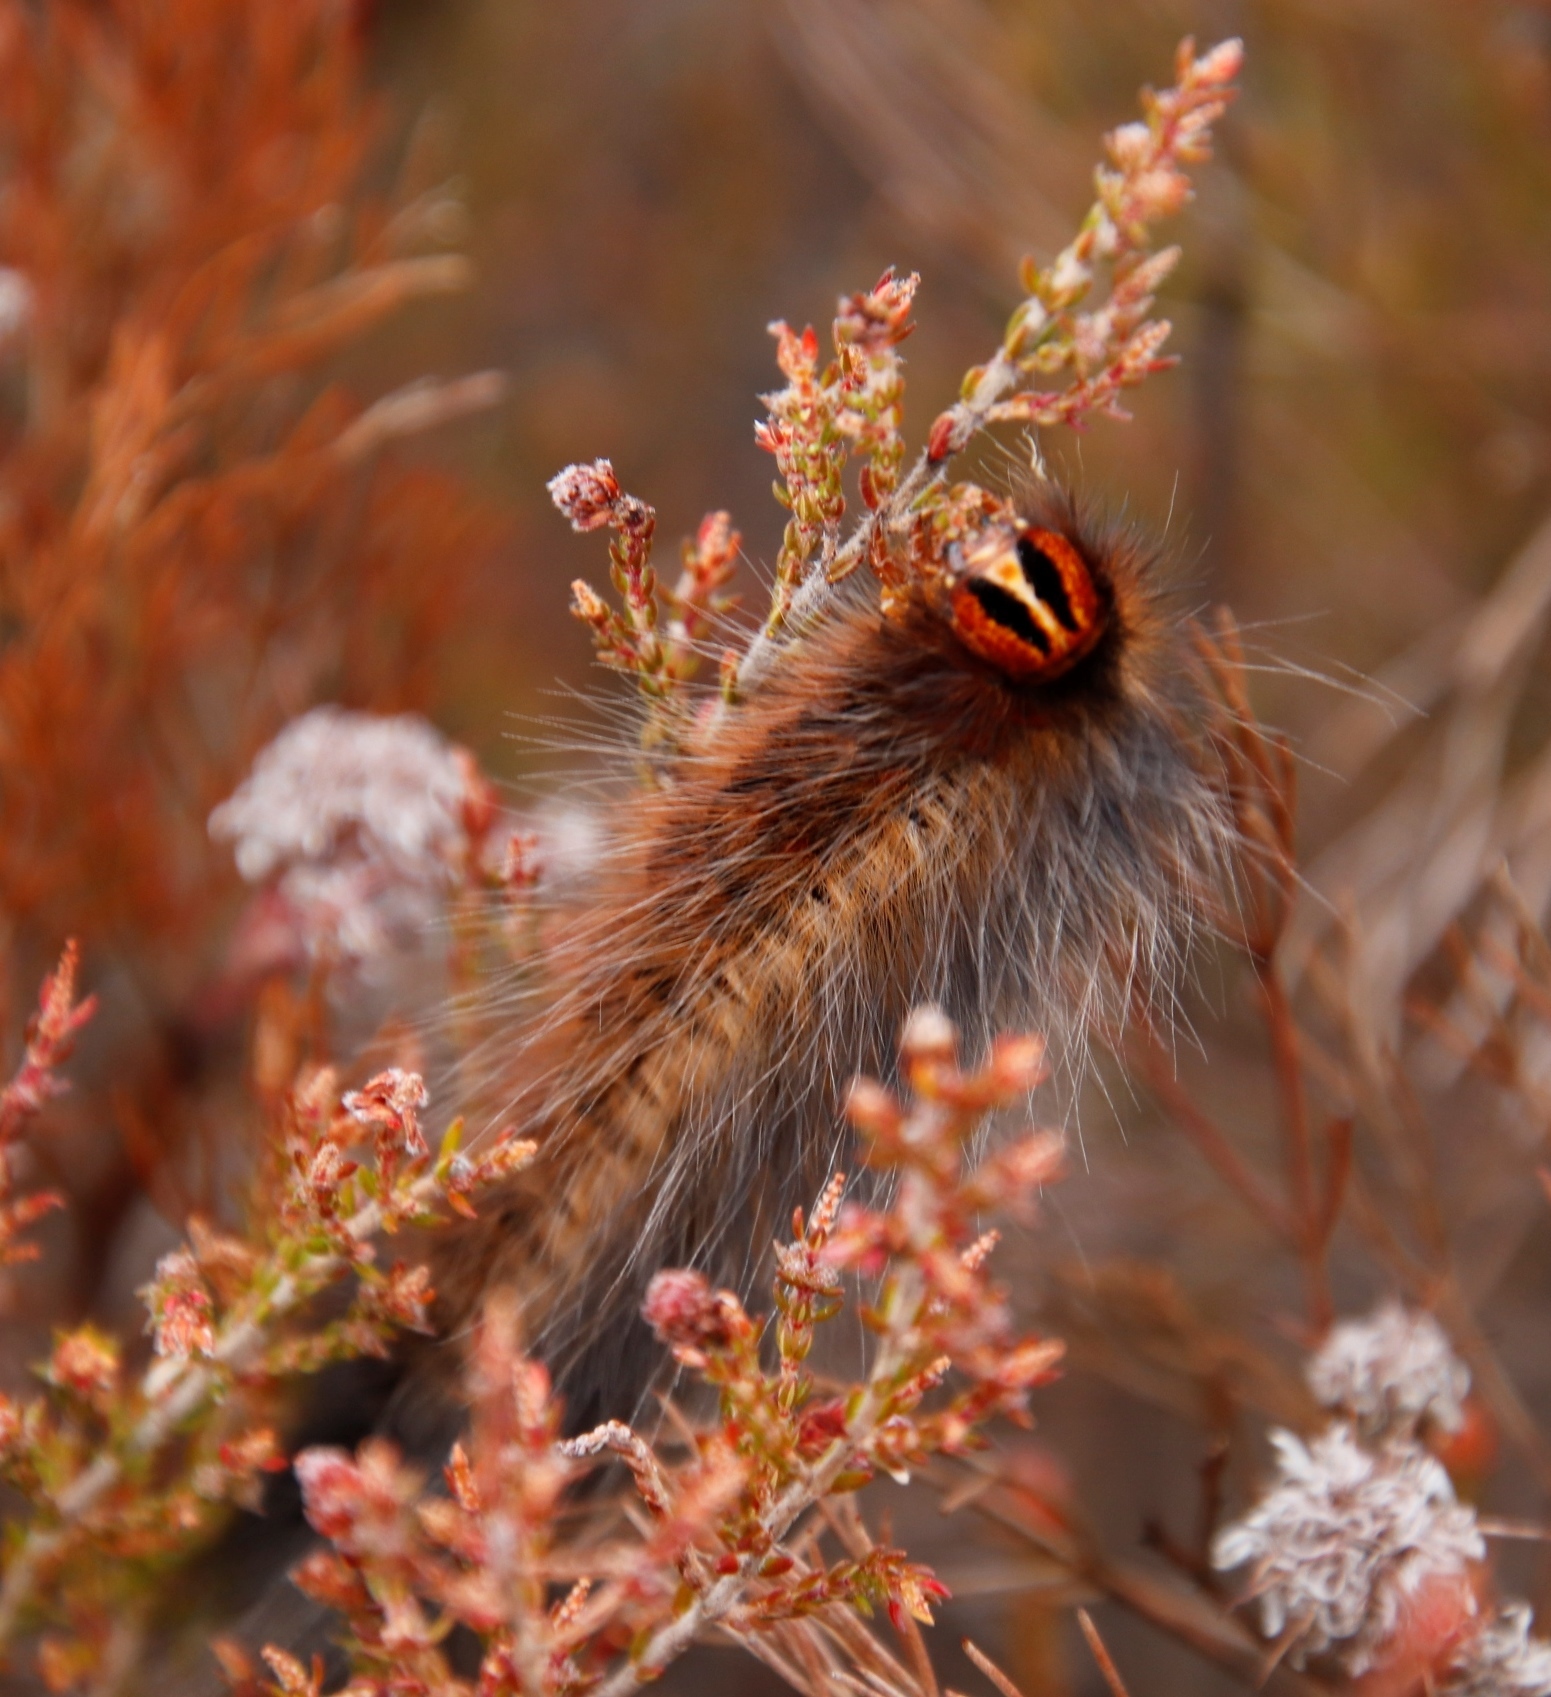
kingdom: Animalia
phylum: Arthropoda
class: Insecta
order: Lepidoptera
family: Lasiocampidae
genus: Mesocelis
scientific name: Mesocelis monticola
